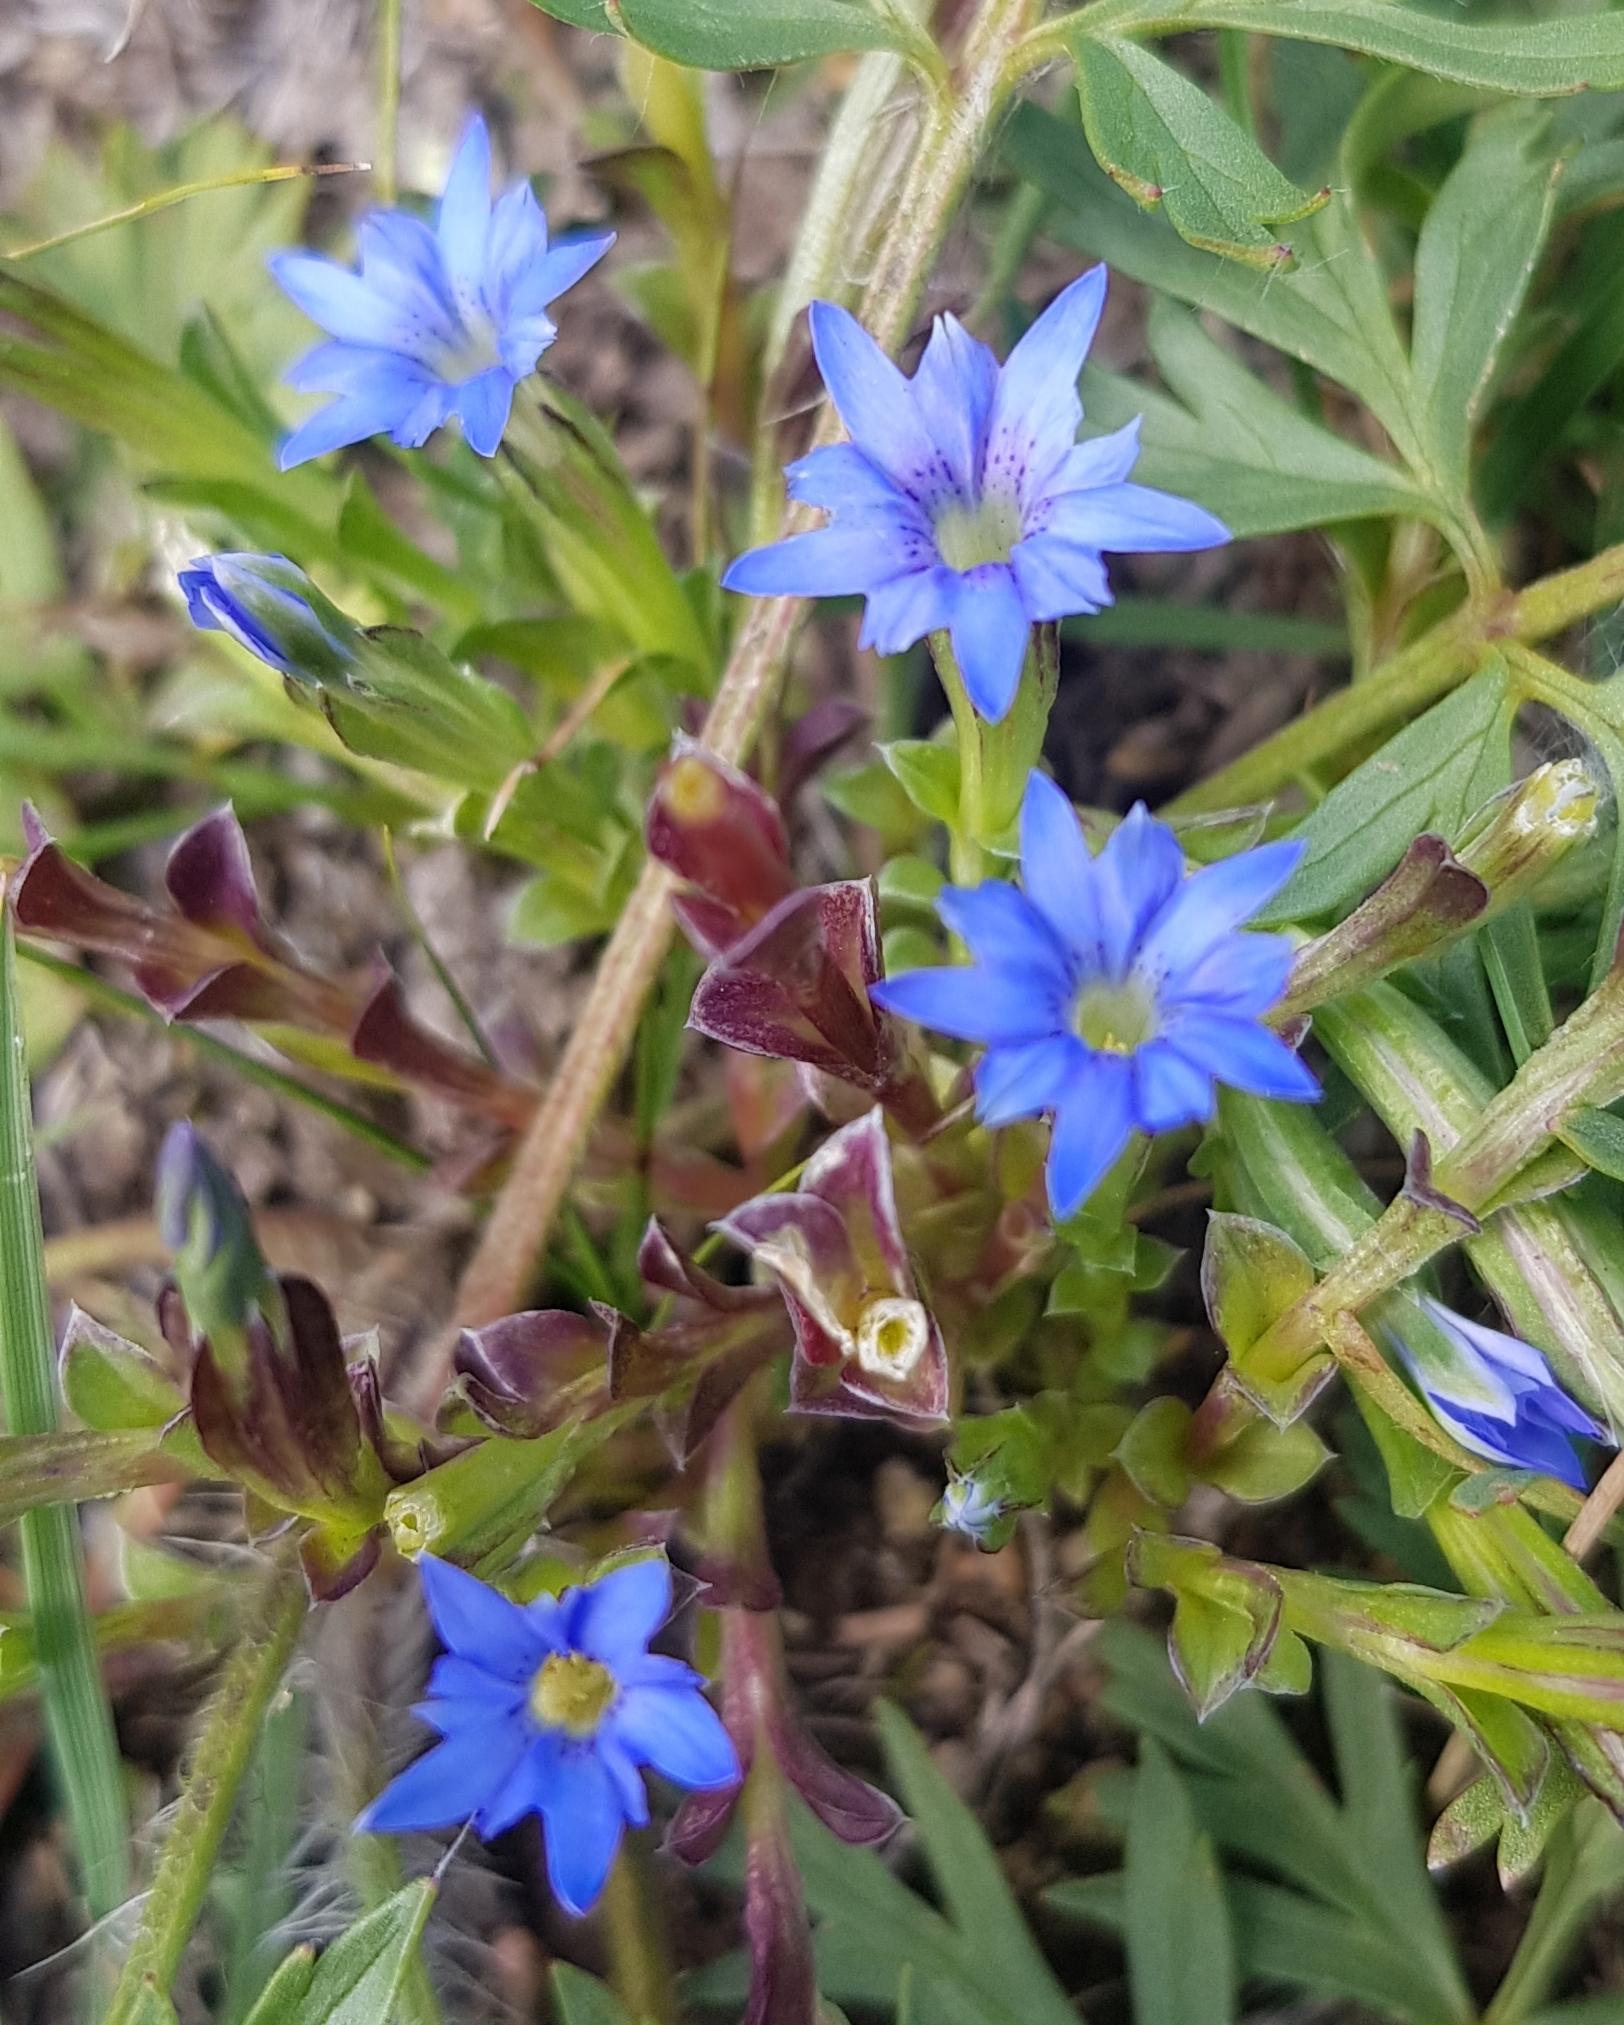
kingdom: Plantae
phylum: Tracheophyta
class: Magnoliopsida
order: Gentianales
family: Gentianaceae
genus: Gentiana
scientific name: Gentiana squarrosa
